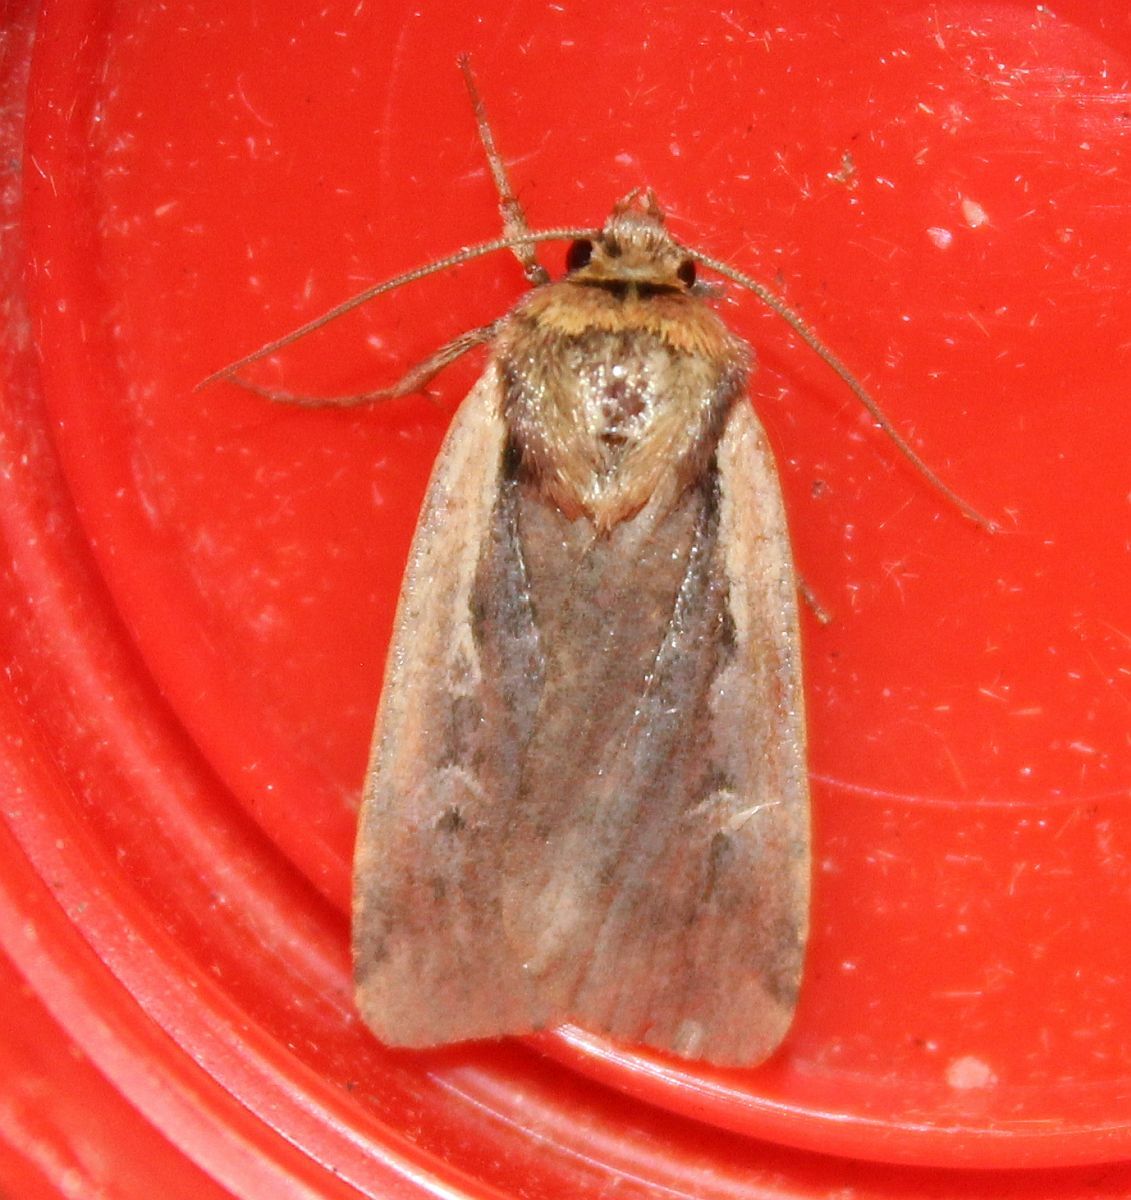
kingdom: Animalia
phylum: Arthropoda
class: Insecta
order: Lepidoptera
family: Noctuidae
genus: Ochropleura
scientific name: Ochropleura plecta
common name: Flame shoulder
